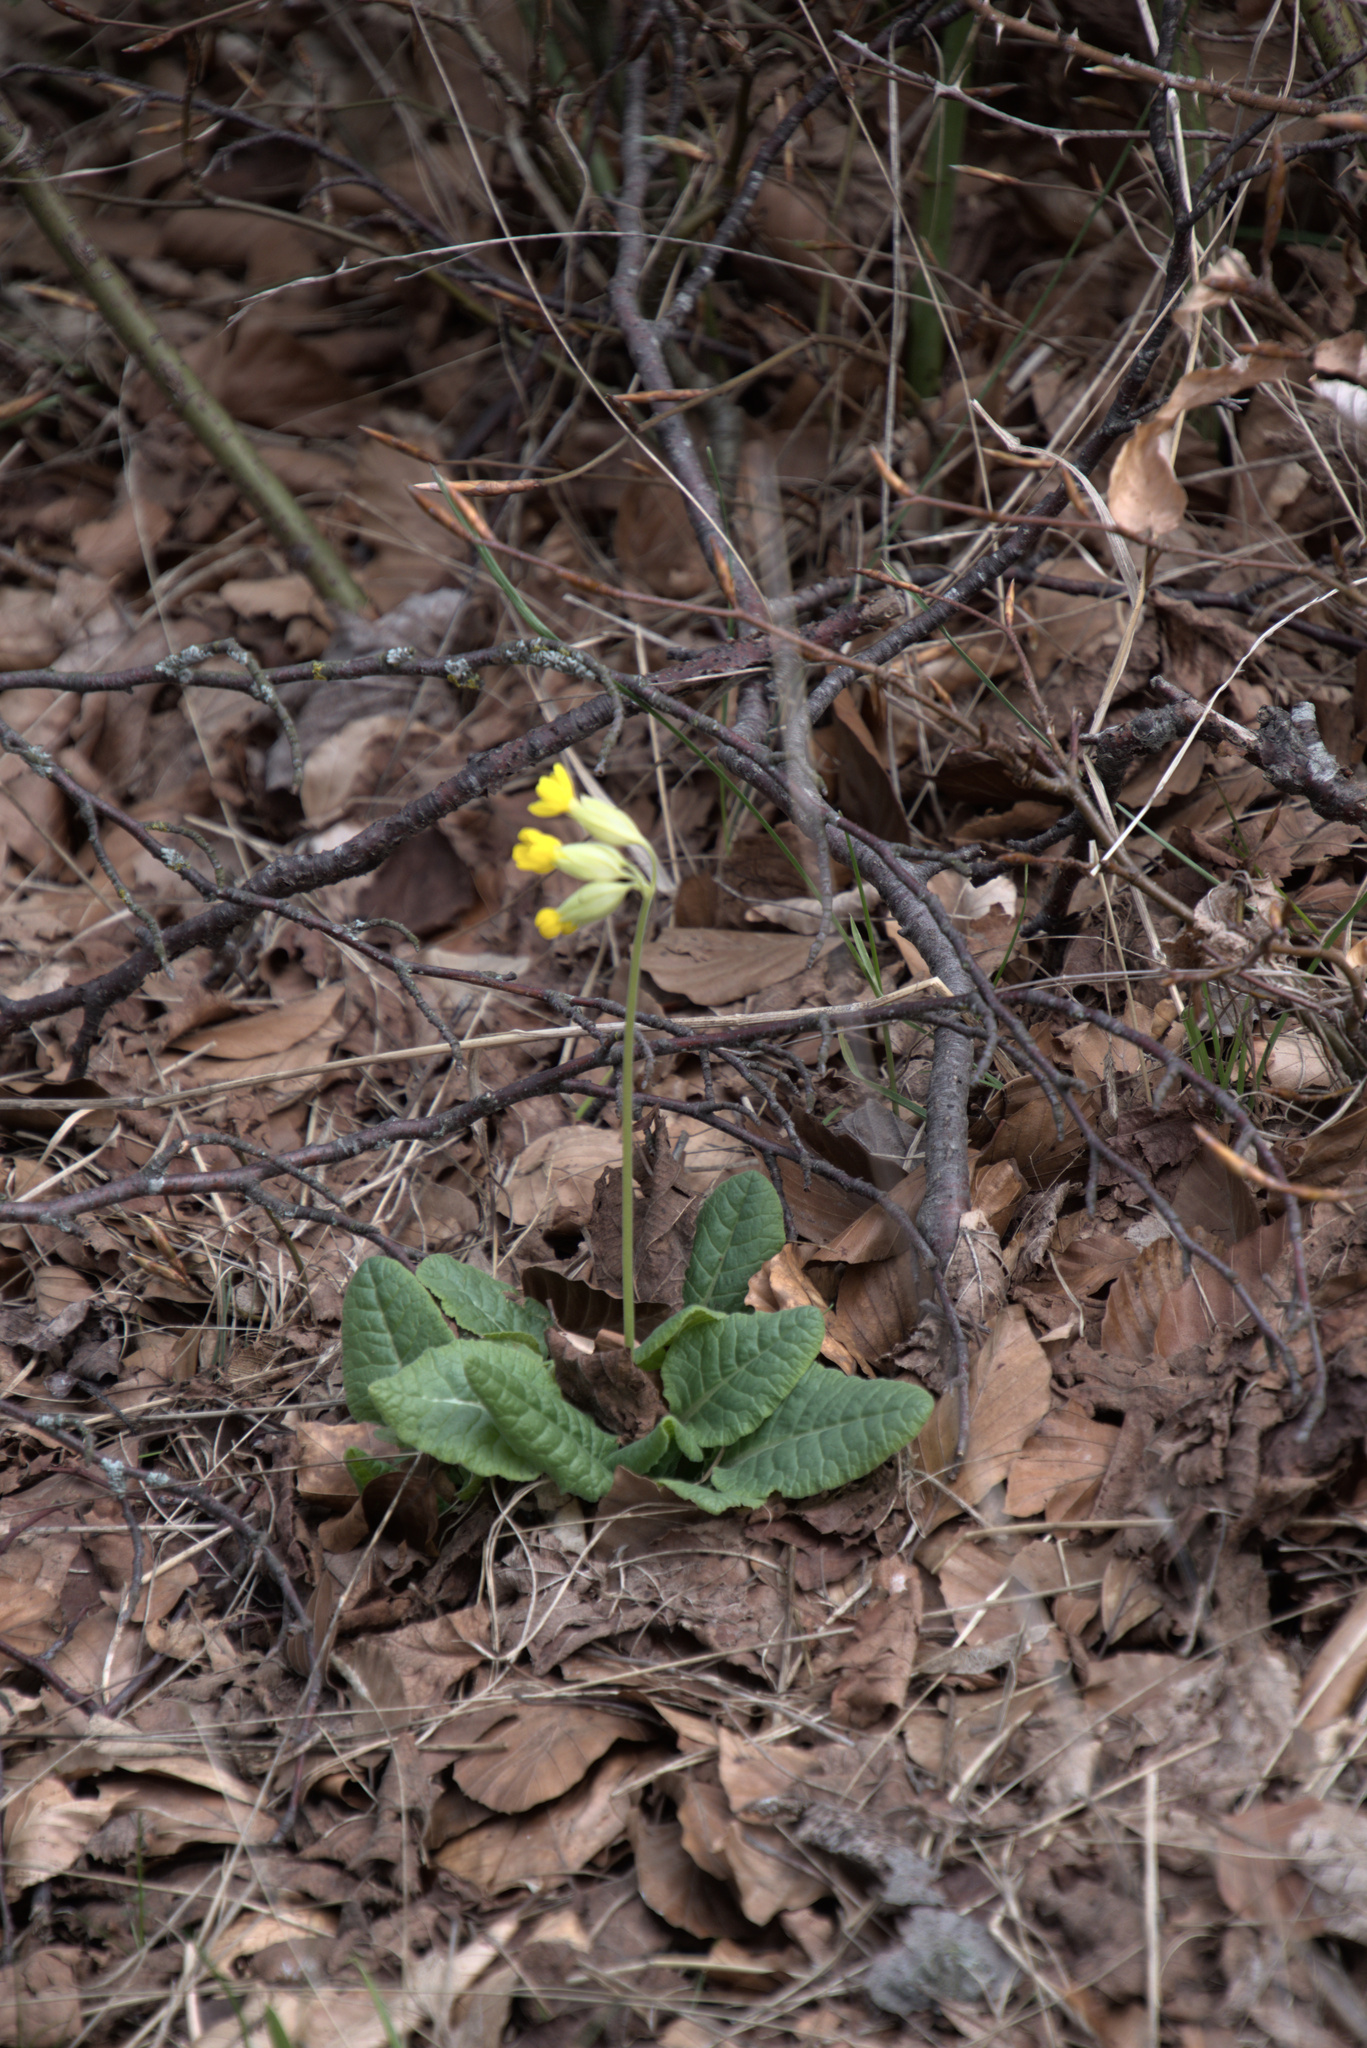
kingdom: Plantae
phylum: Tracheophyta
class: Magnoliopsida
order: Ericales
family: Primulaceae
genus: Primula
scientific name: Primula veris
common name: Cowslip
